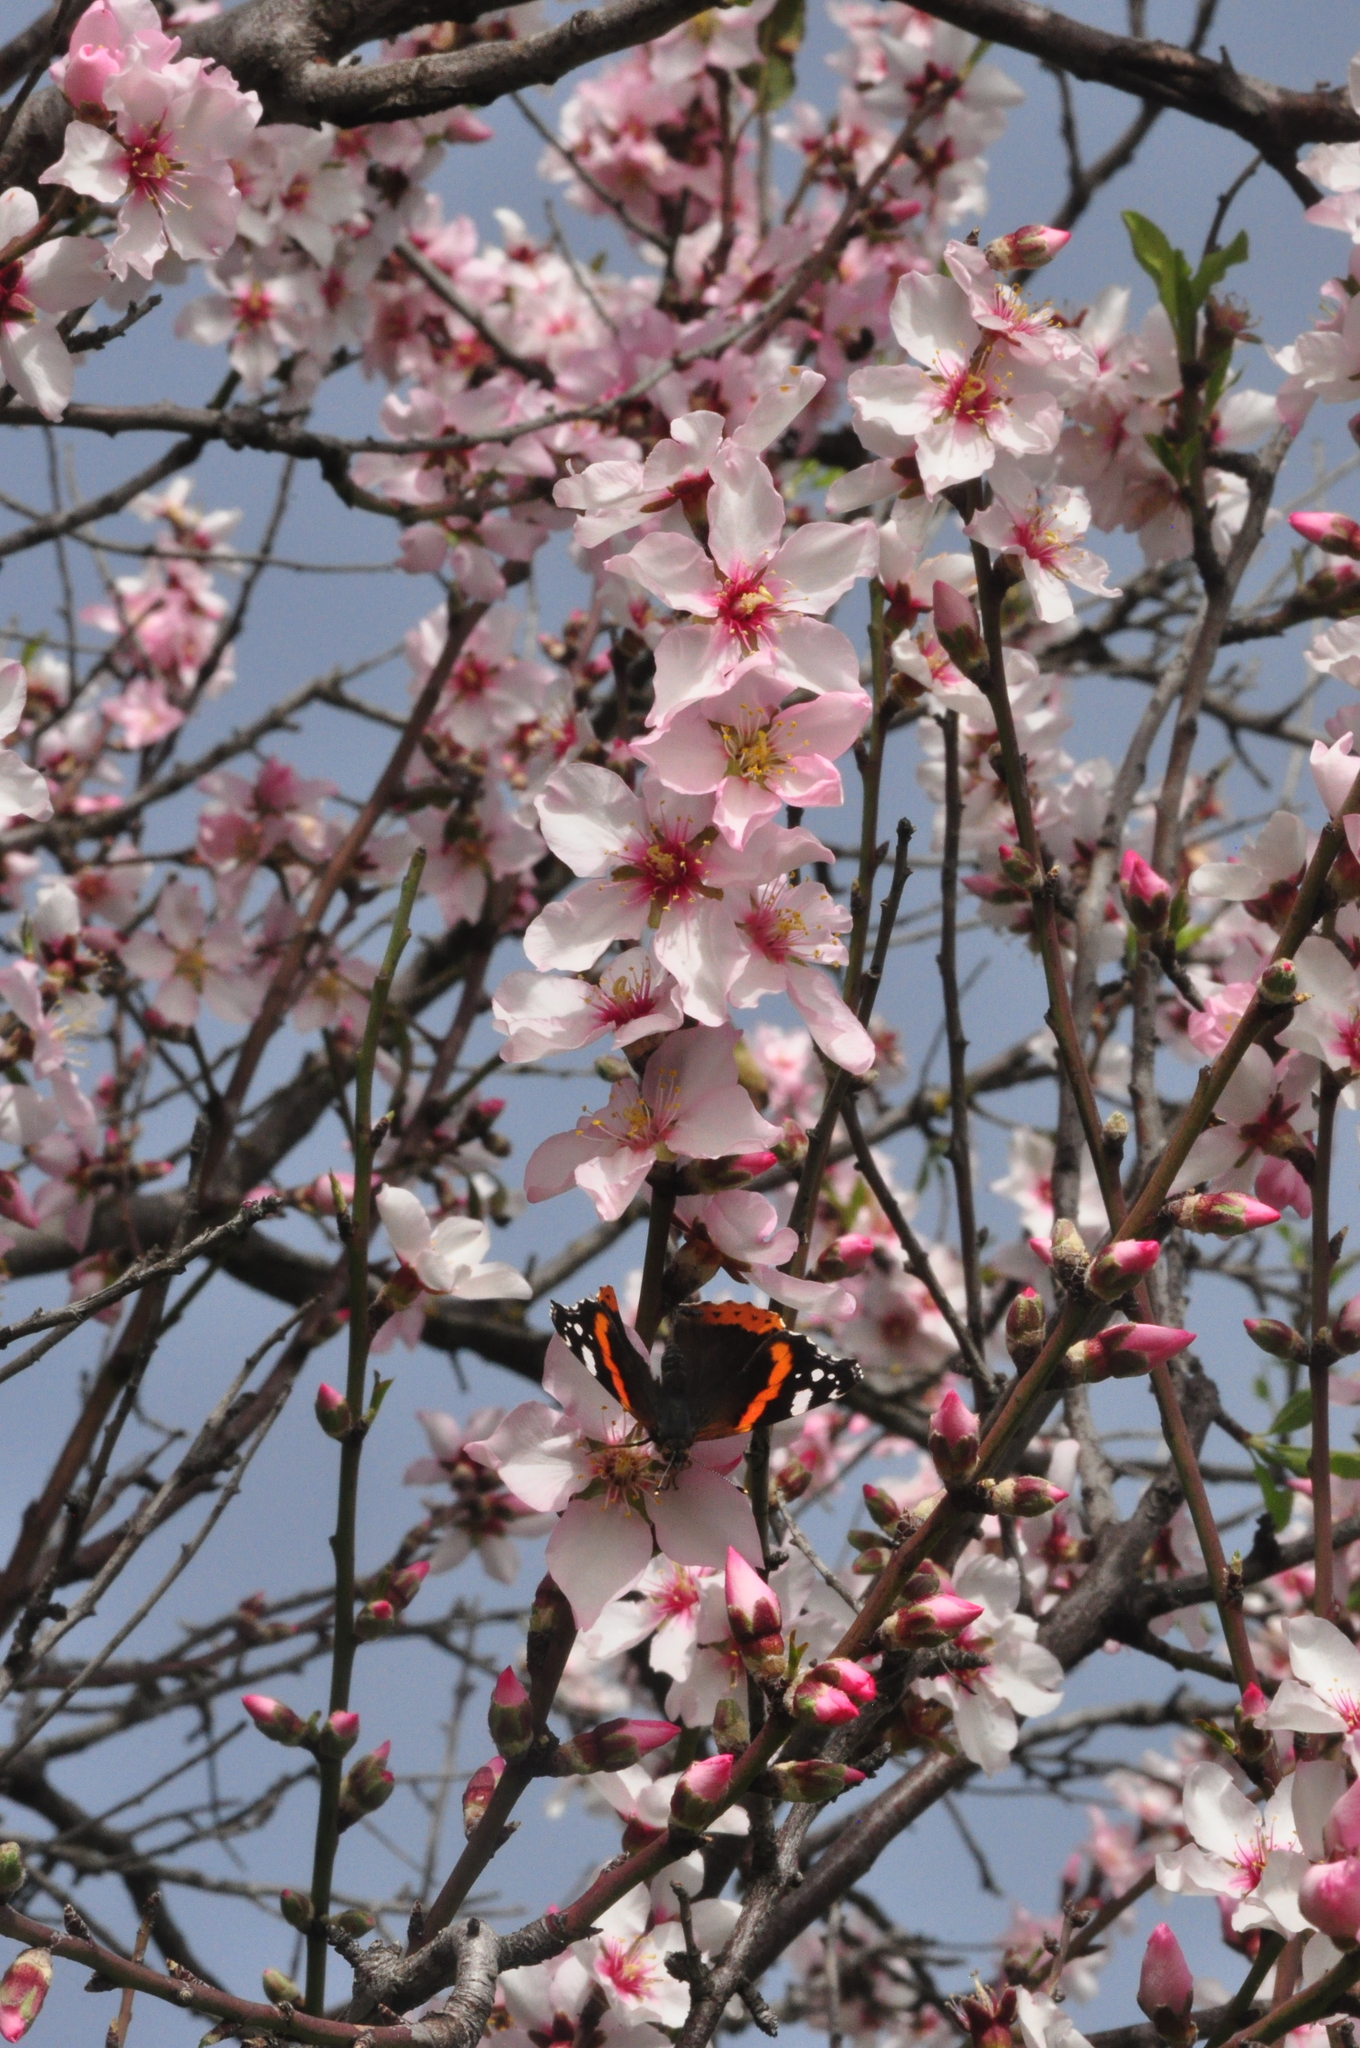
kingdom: Animalia
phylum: Arthropoda
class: Insecta
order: Lepidoptera
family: Nymphalidae
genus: Vanessa
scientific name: Vanessa atalanta
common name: Red admiral
